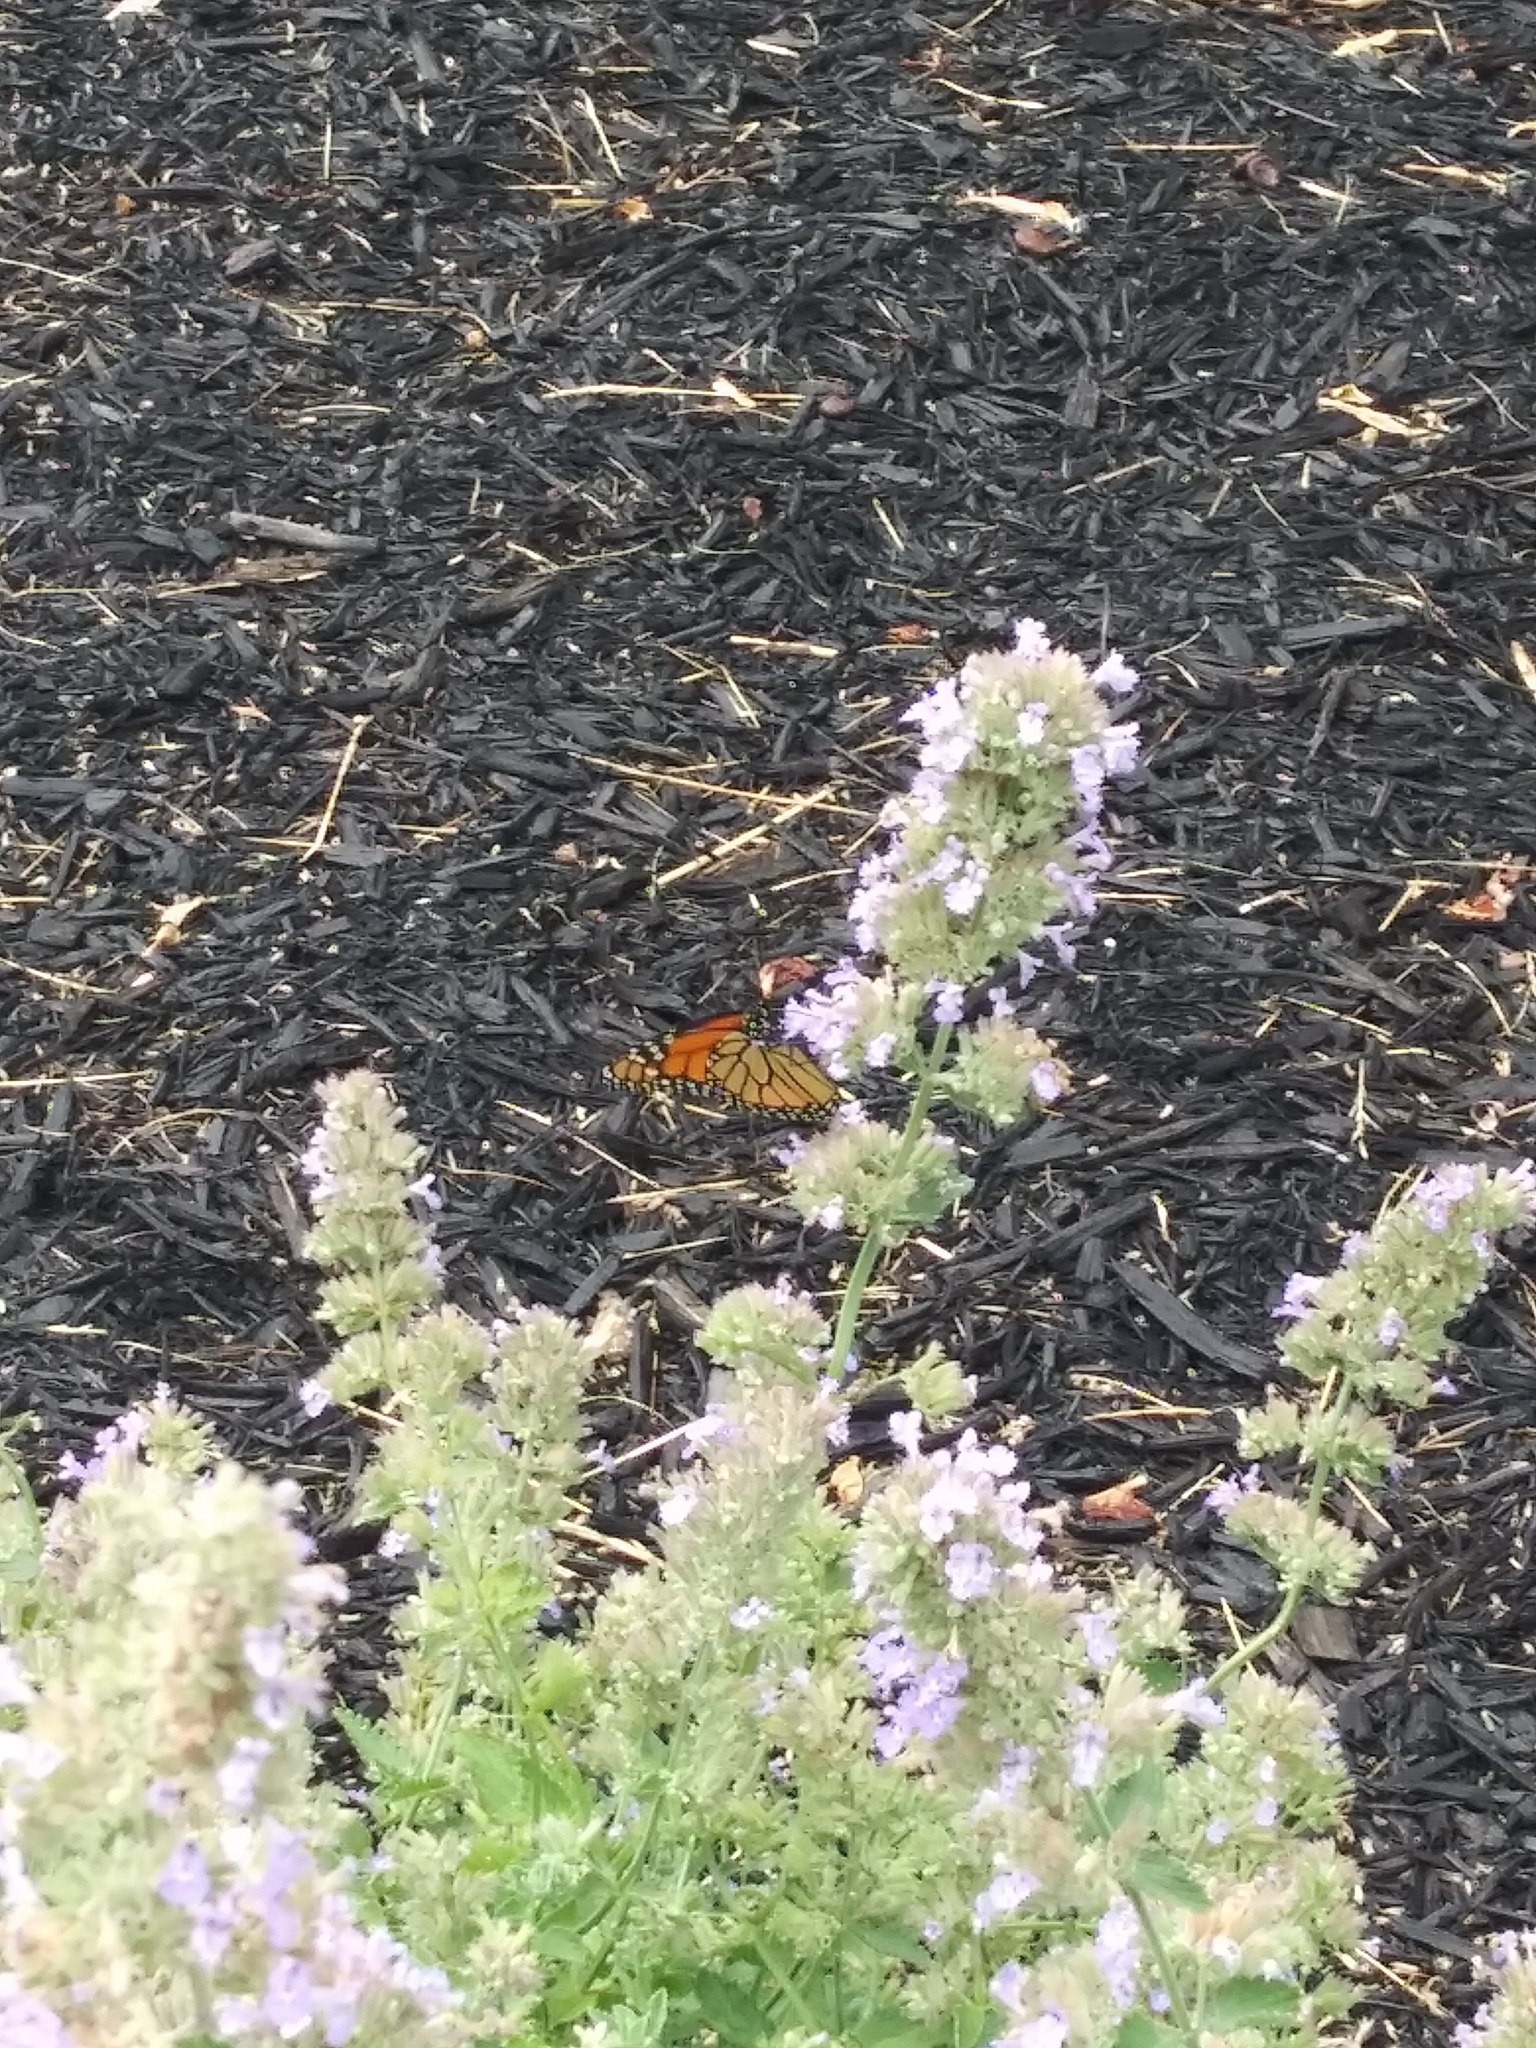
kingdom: Animalia
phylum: Arthropoda
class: Insecta
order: Lepidoptera
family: Nymphalidae
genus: Danaus
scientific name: Danaus plexippus
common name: Monarch
